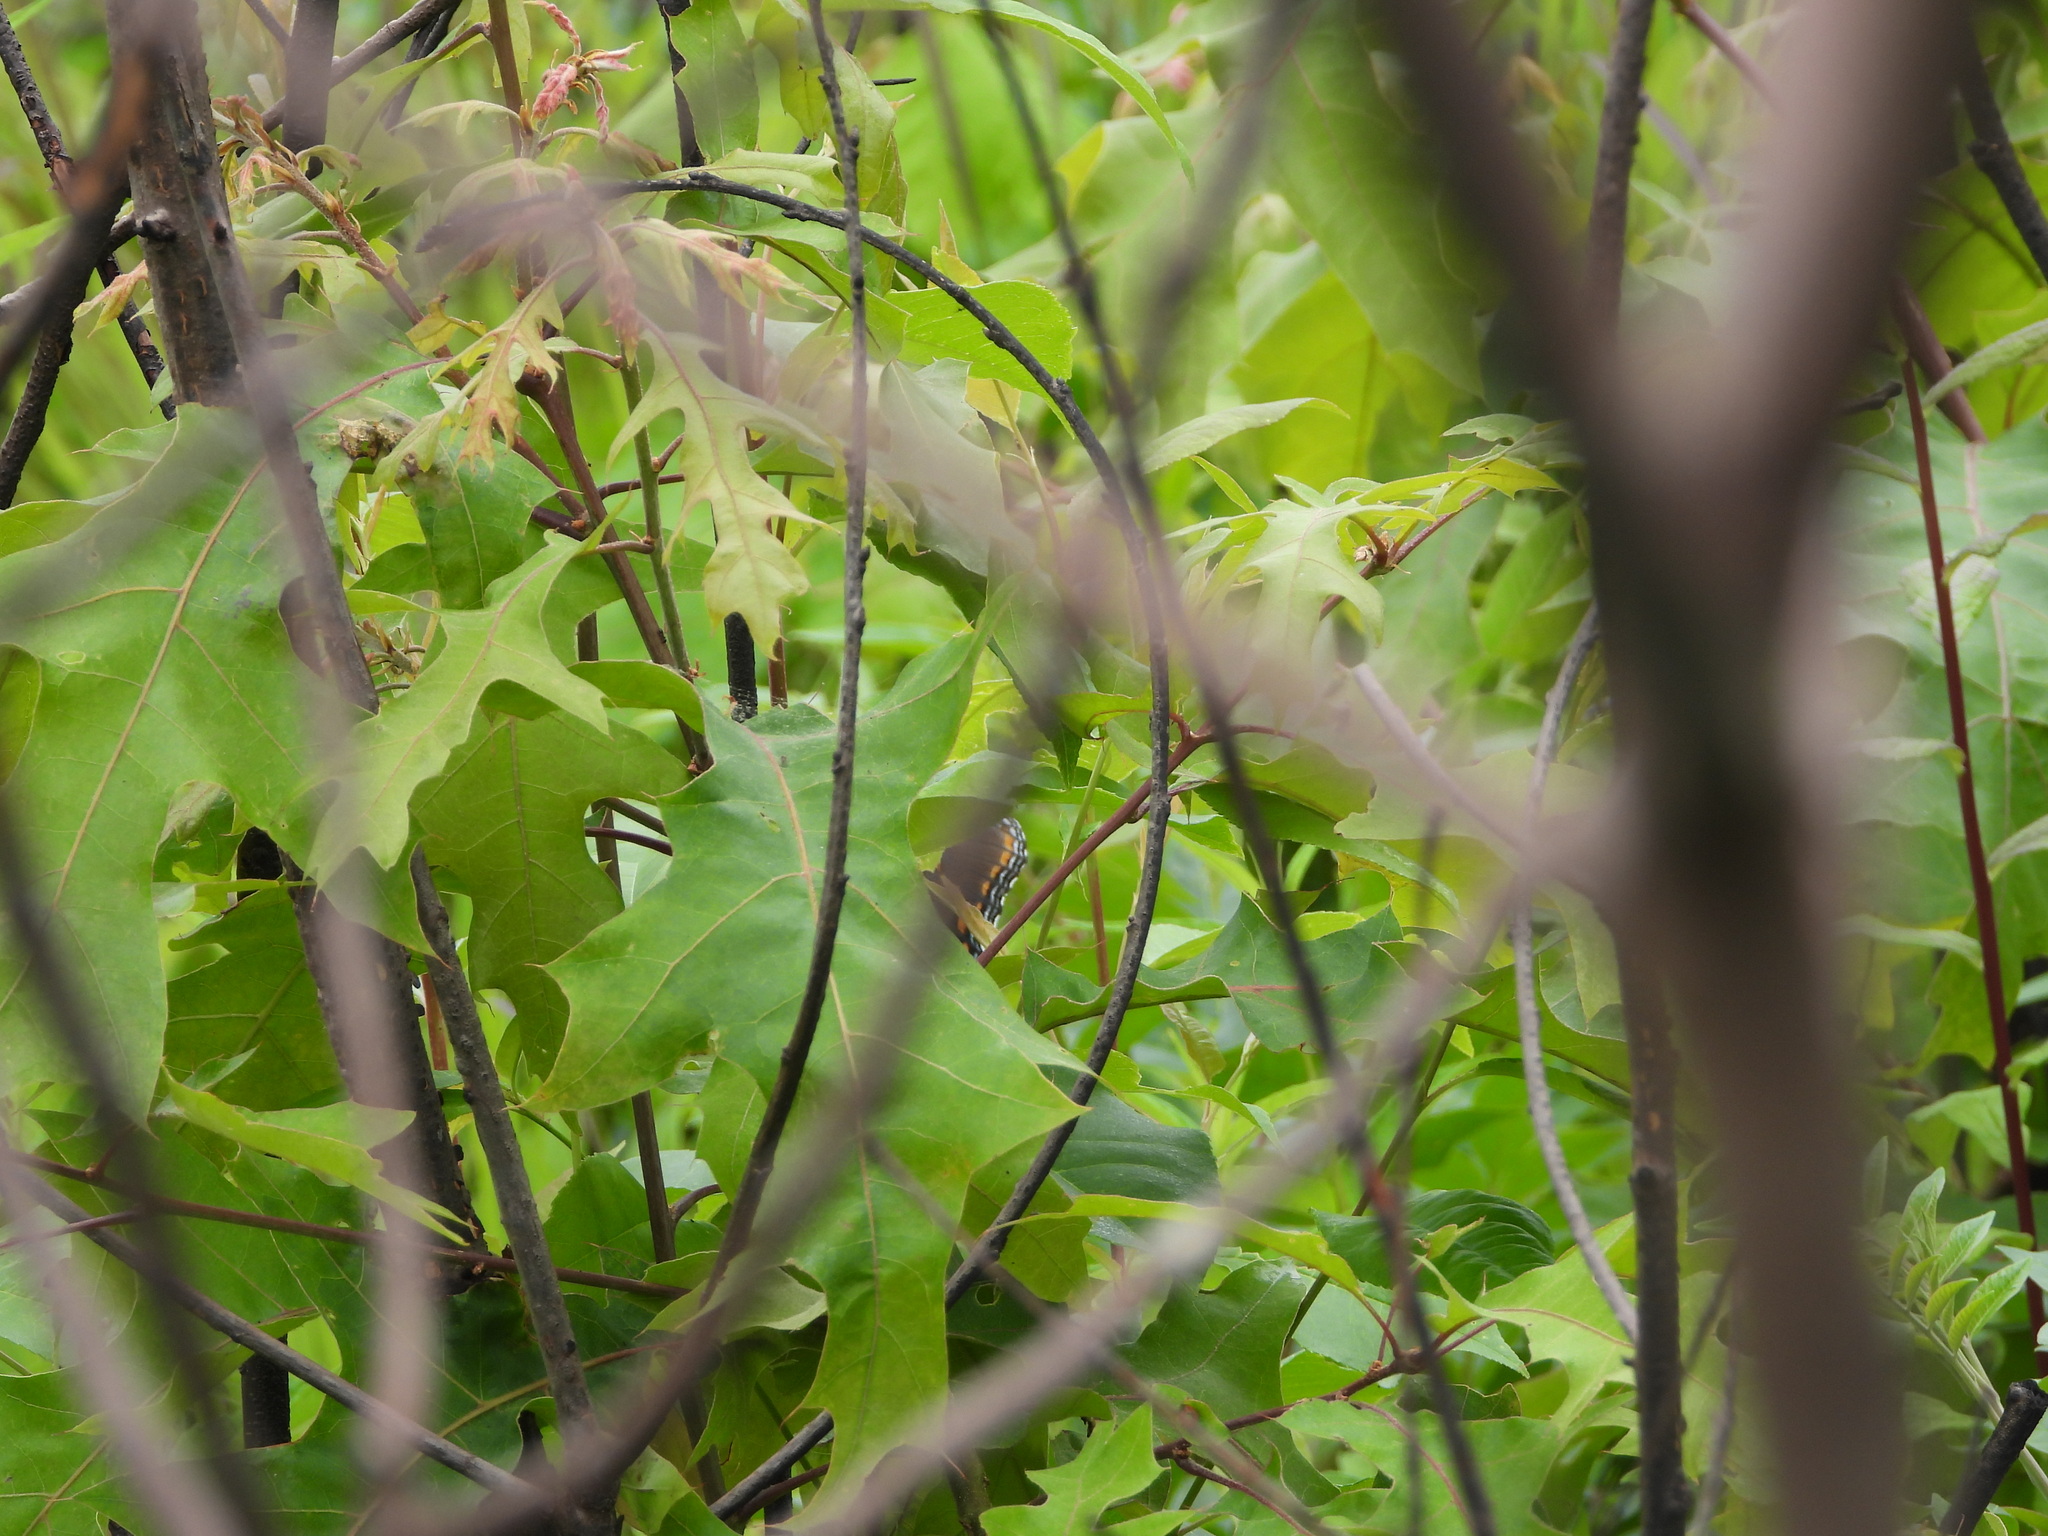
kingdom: Animalia
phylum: Arthropoda
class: Insecta
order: Lepidoptera
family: Nymphalidae
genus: Limenitis
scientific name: Limenitis arthemis
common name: Red-spotted admiral
